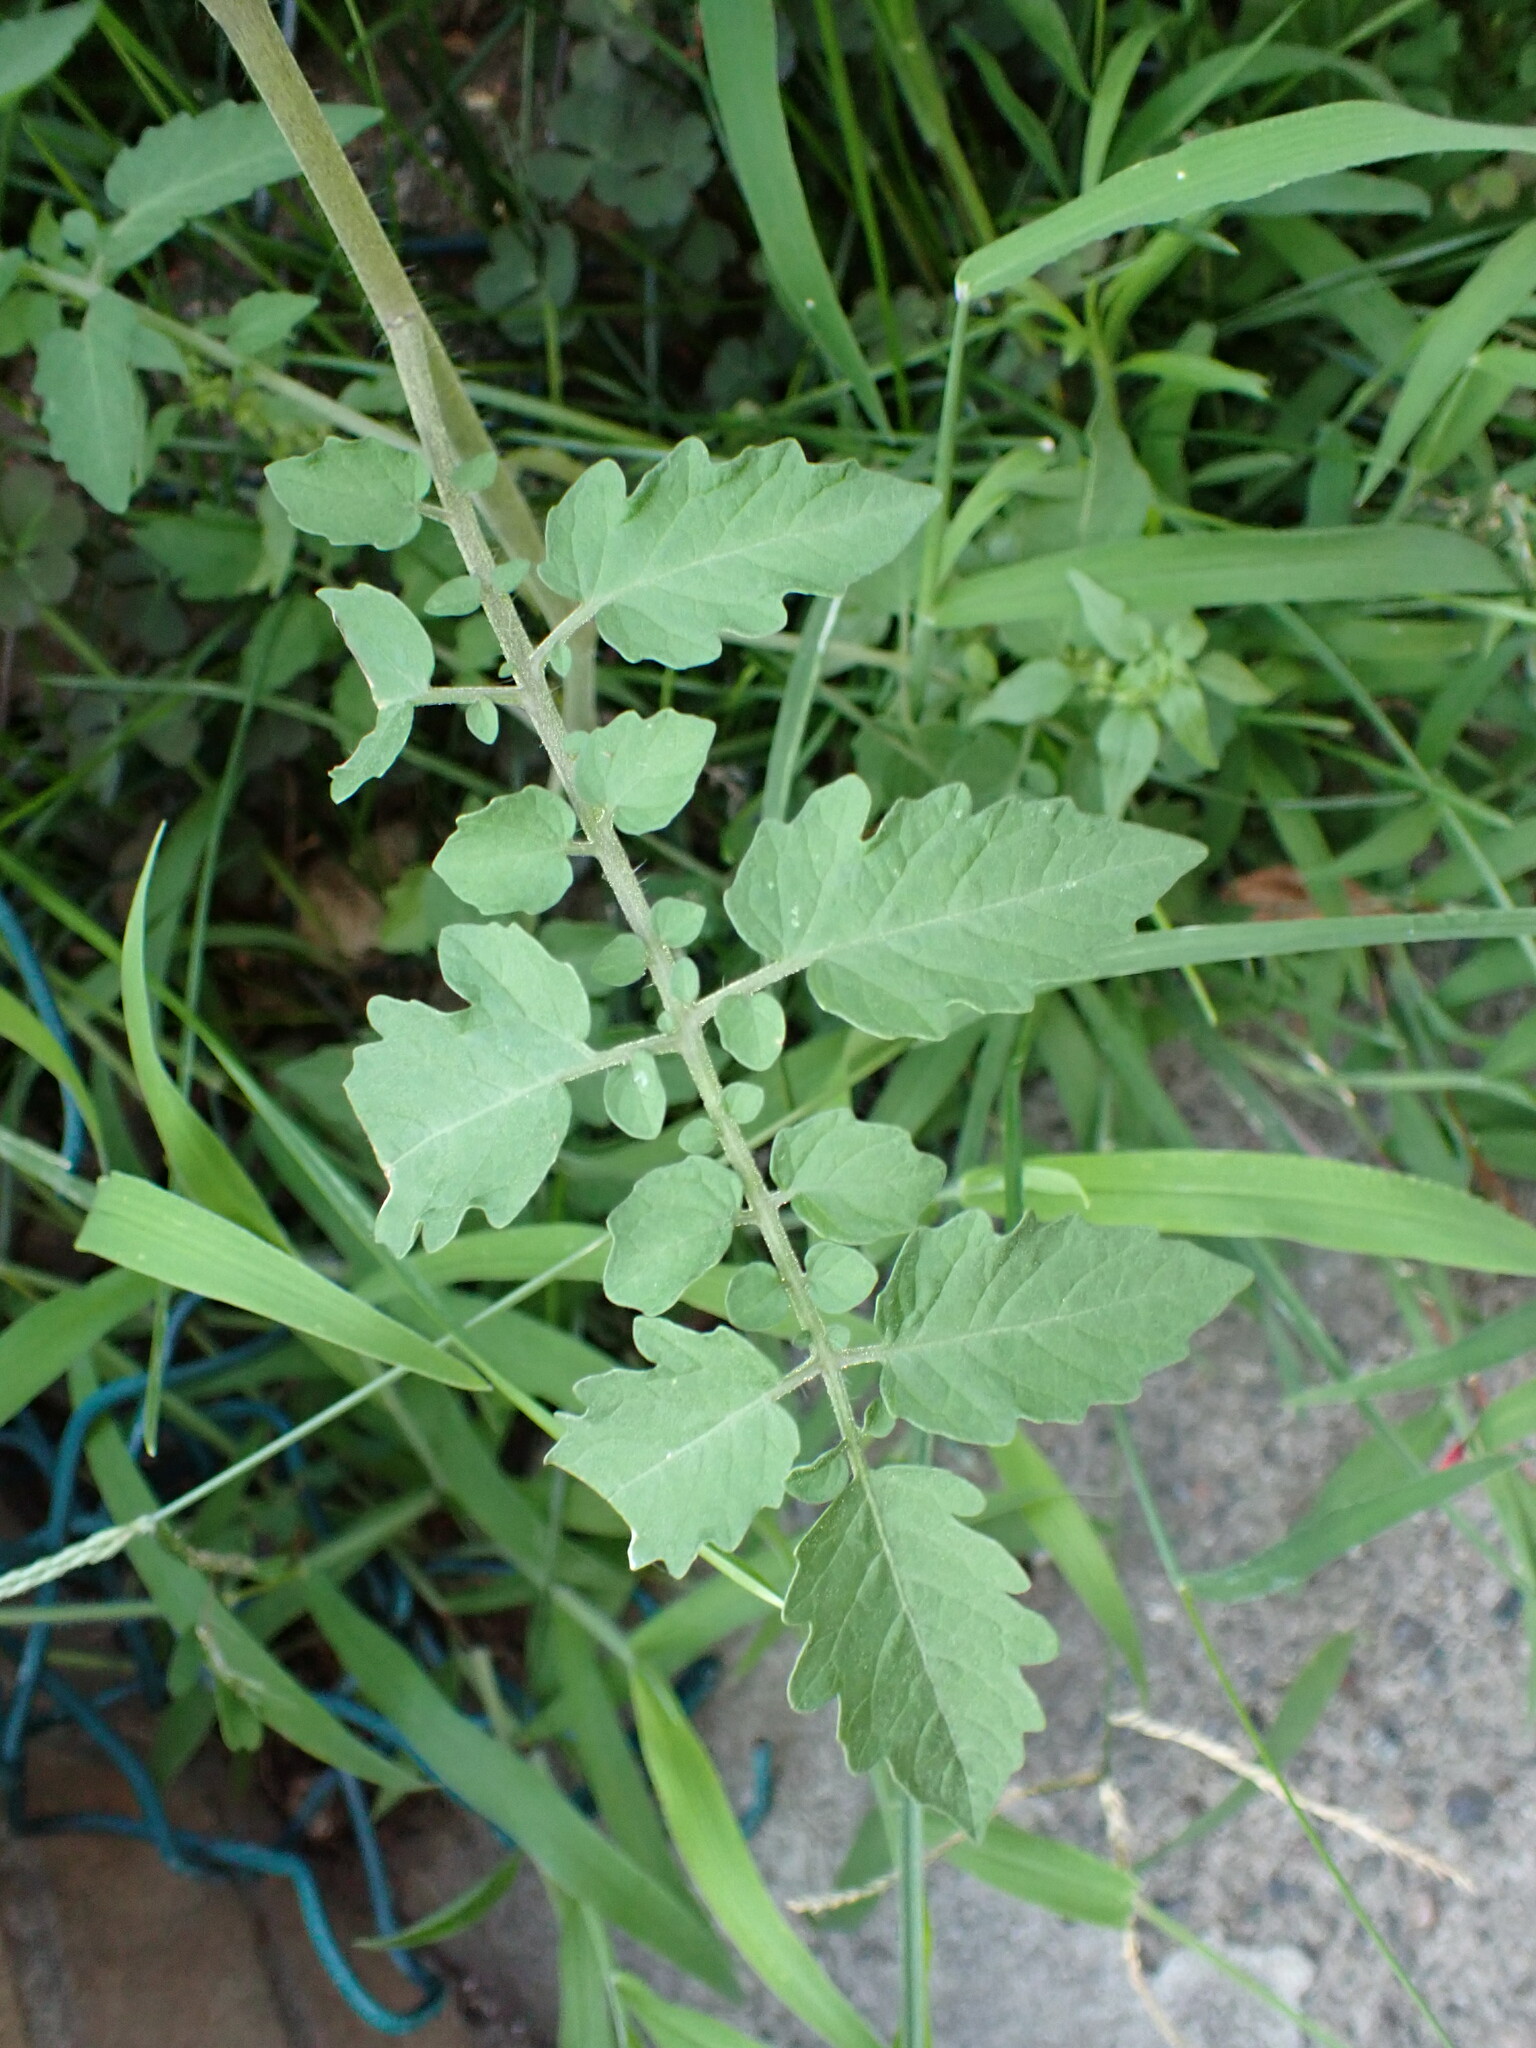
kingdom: Plantae
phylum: Tracheophyta
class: Magnoliopsida
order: Solanales
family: Solanaceae
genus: Solanum
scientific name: Solanum lycopersicum
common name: Garden tomato
